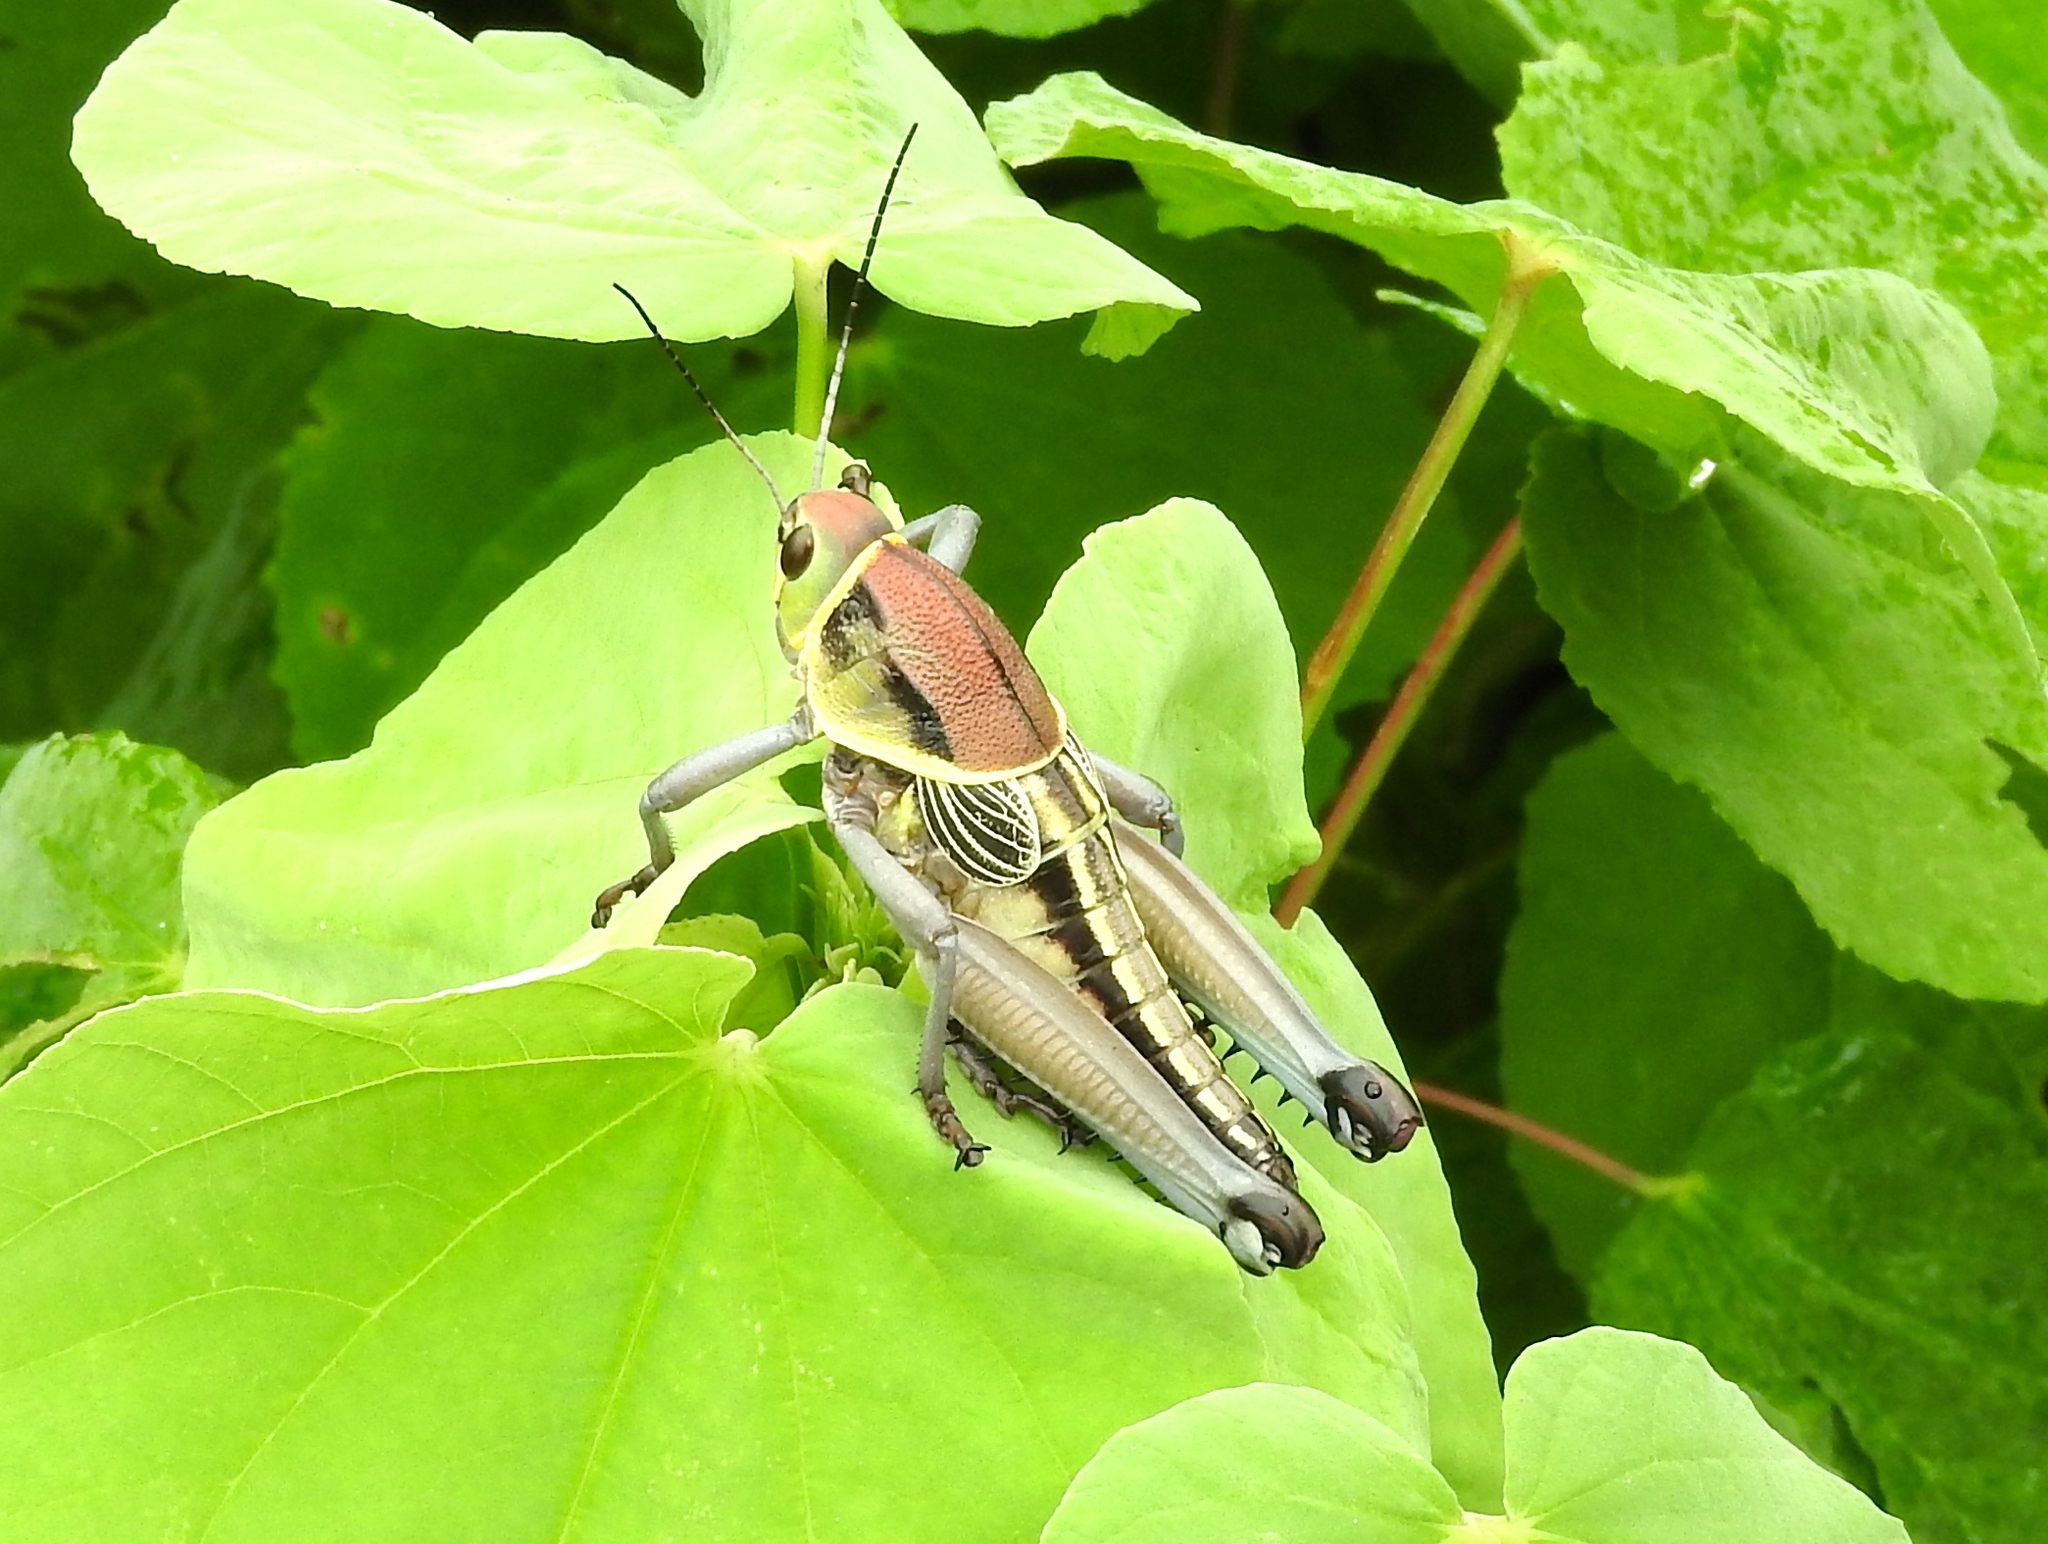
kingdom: Animalia
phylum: Arthropoda
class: Insecta
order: Orthoptera
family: Romaleidae
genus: Brachystola
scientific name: Brachystola
